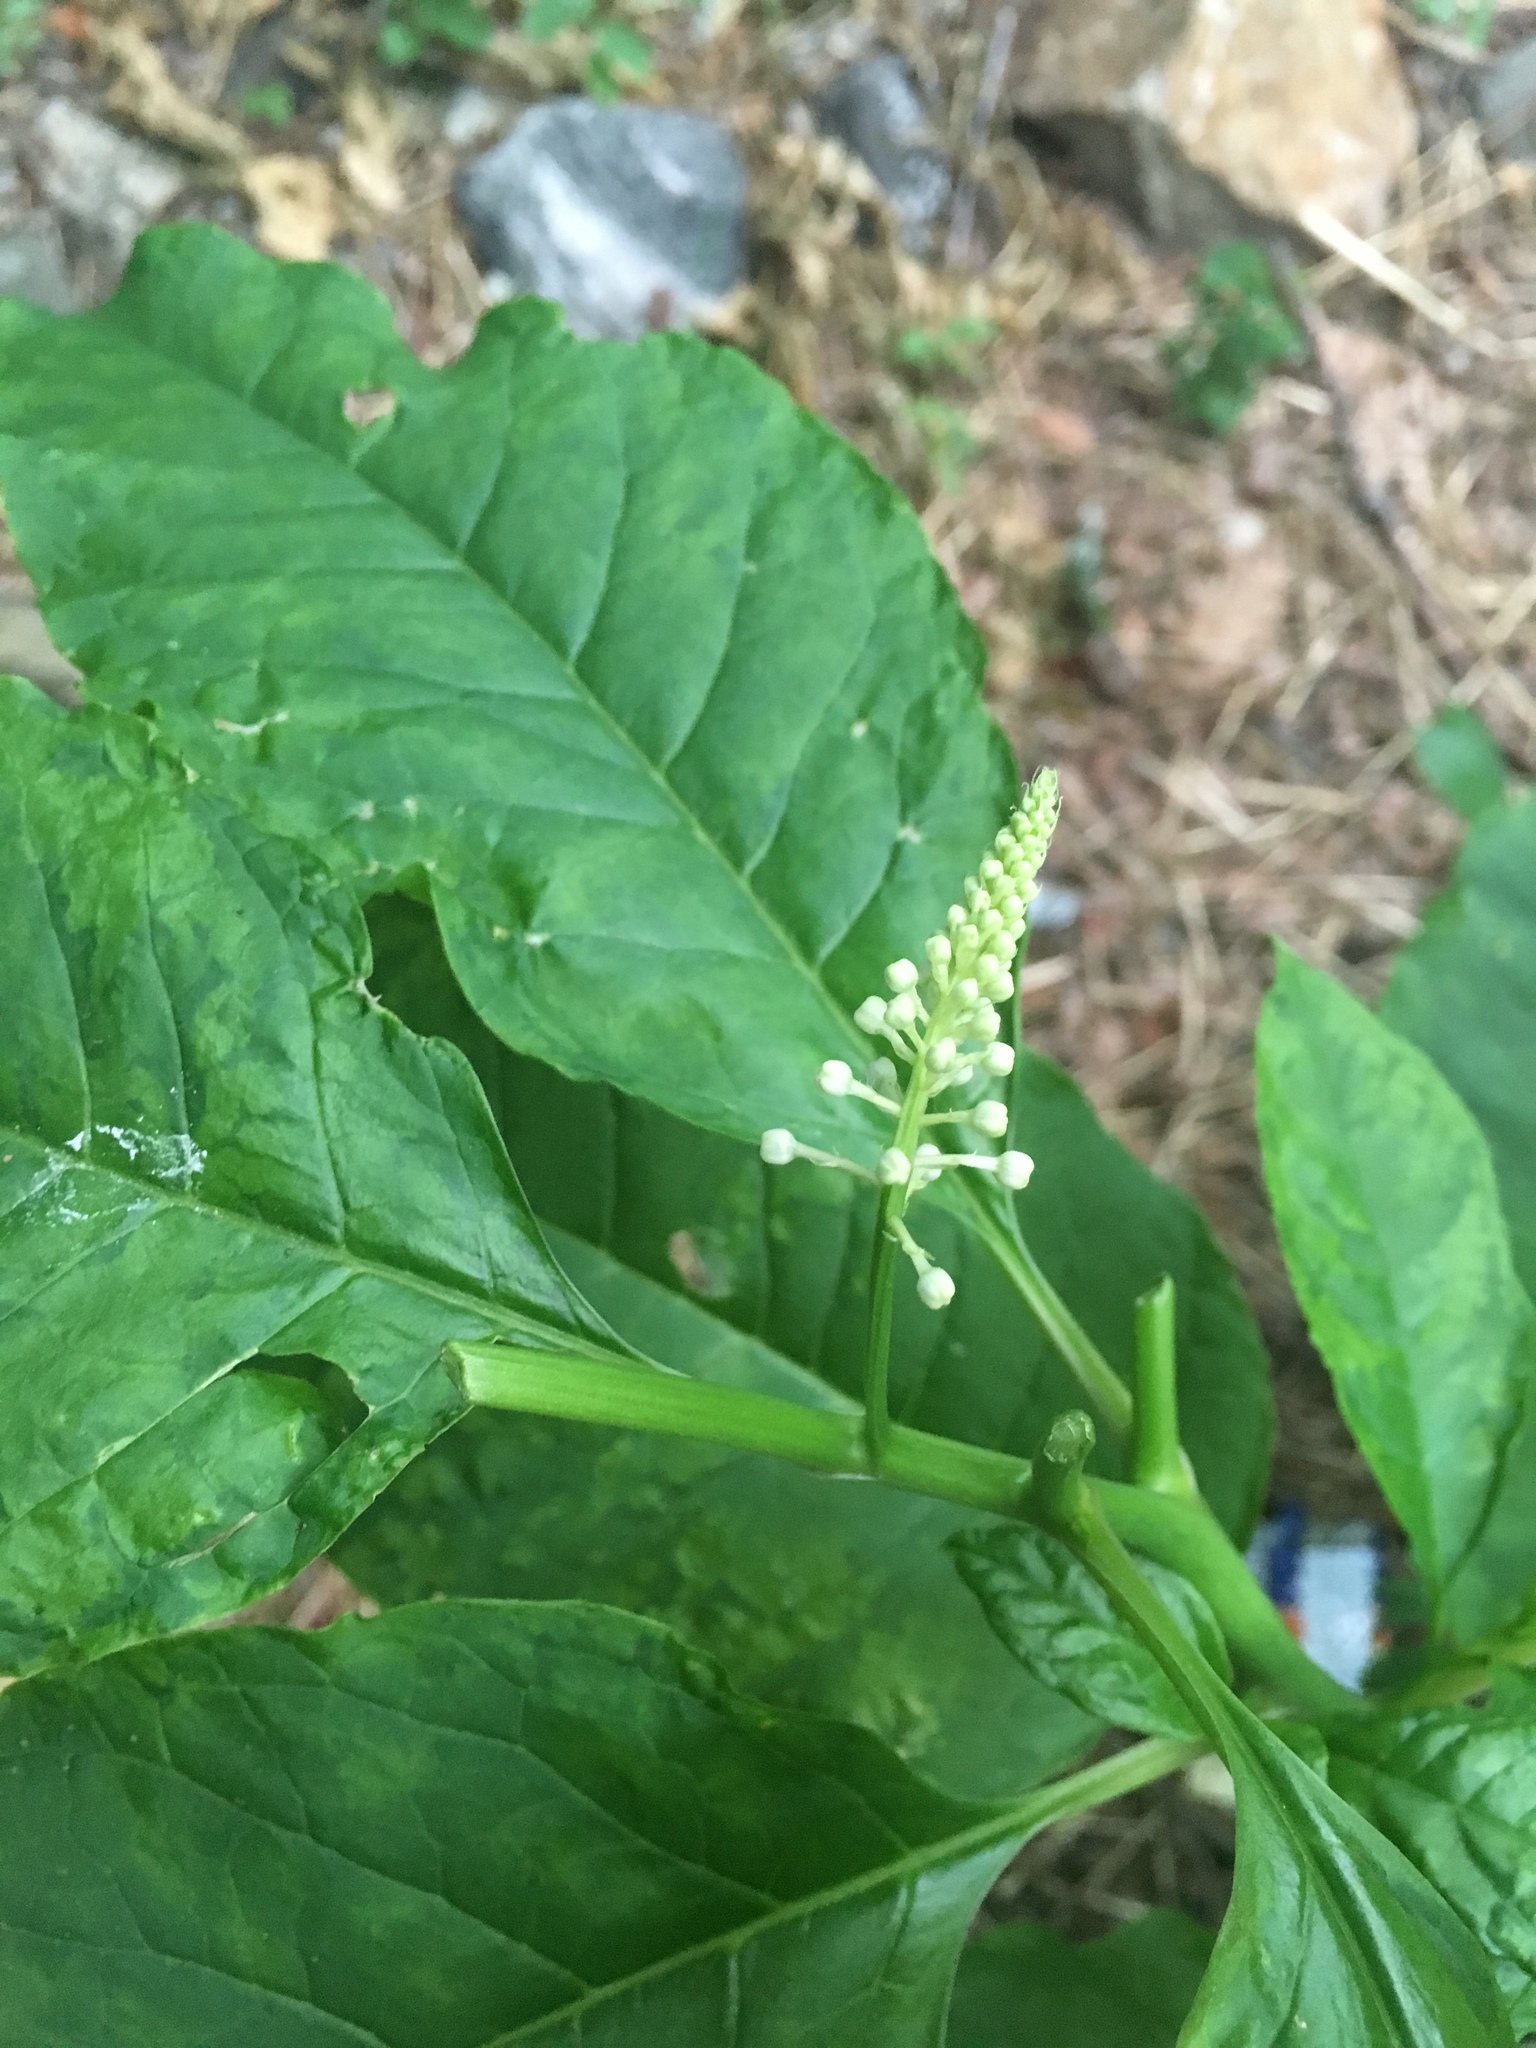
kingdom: Plantae
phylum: Tracheophyta
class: Magnoliopsida
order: Caryophyllales
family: Phytolaccaceae
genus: Phytolacca
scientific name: Phytolacca americana
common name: American pokeweed
